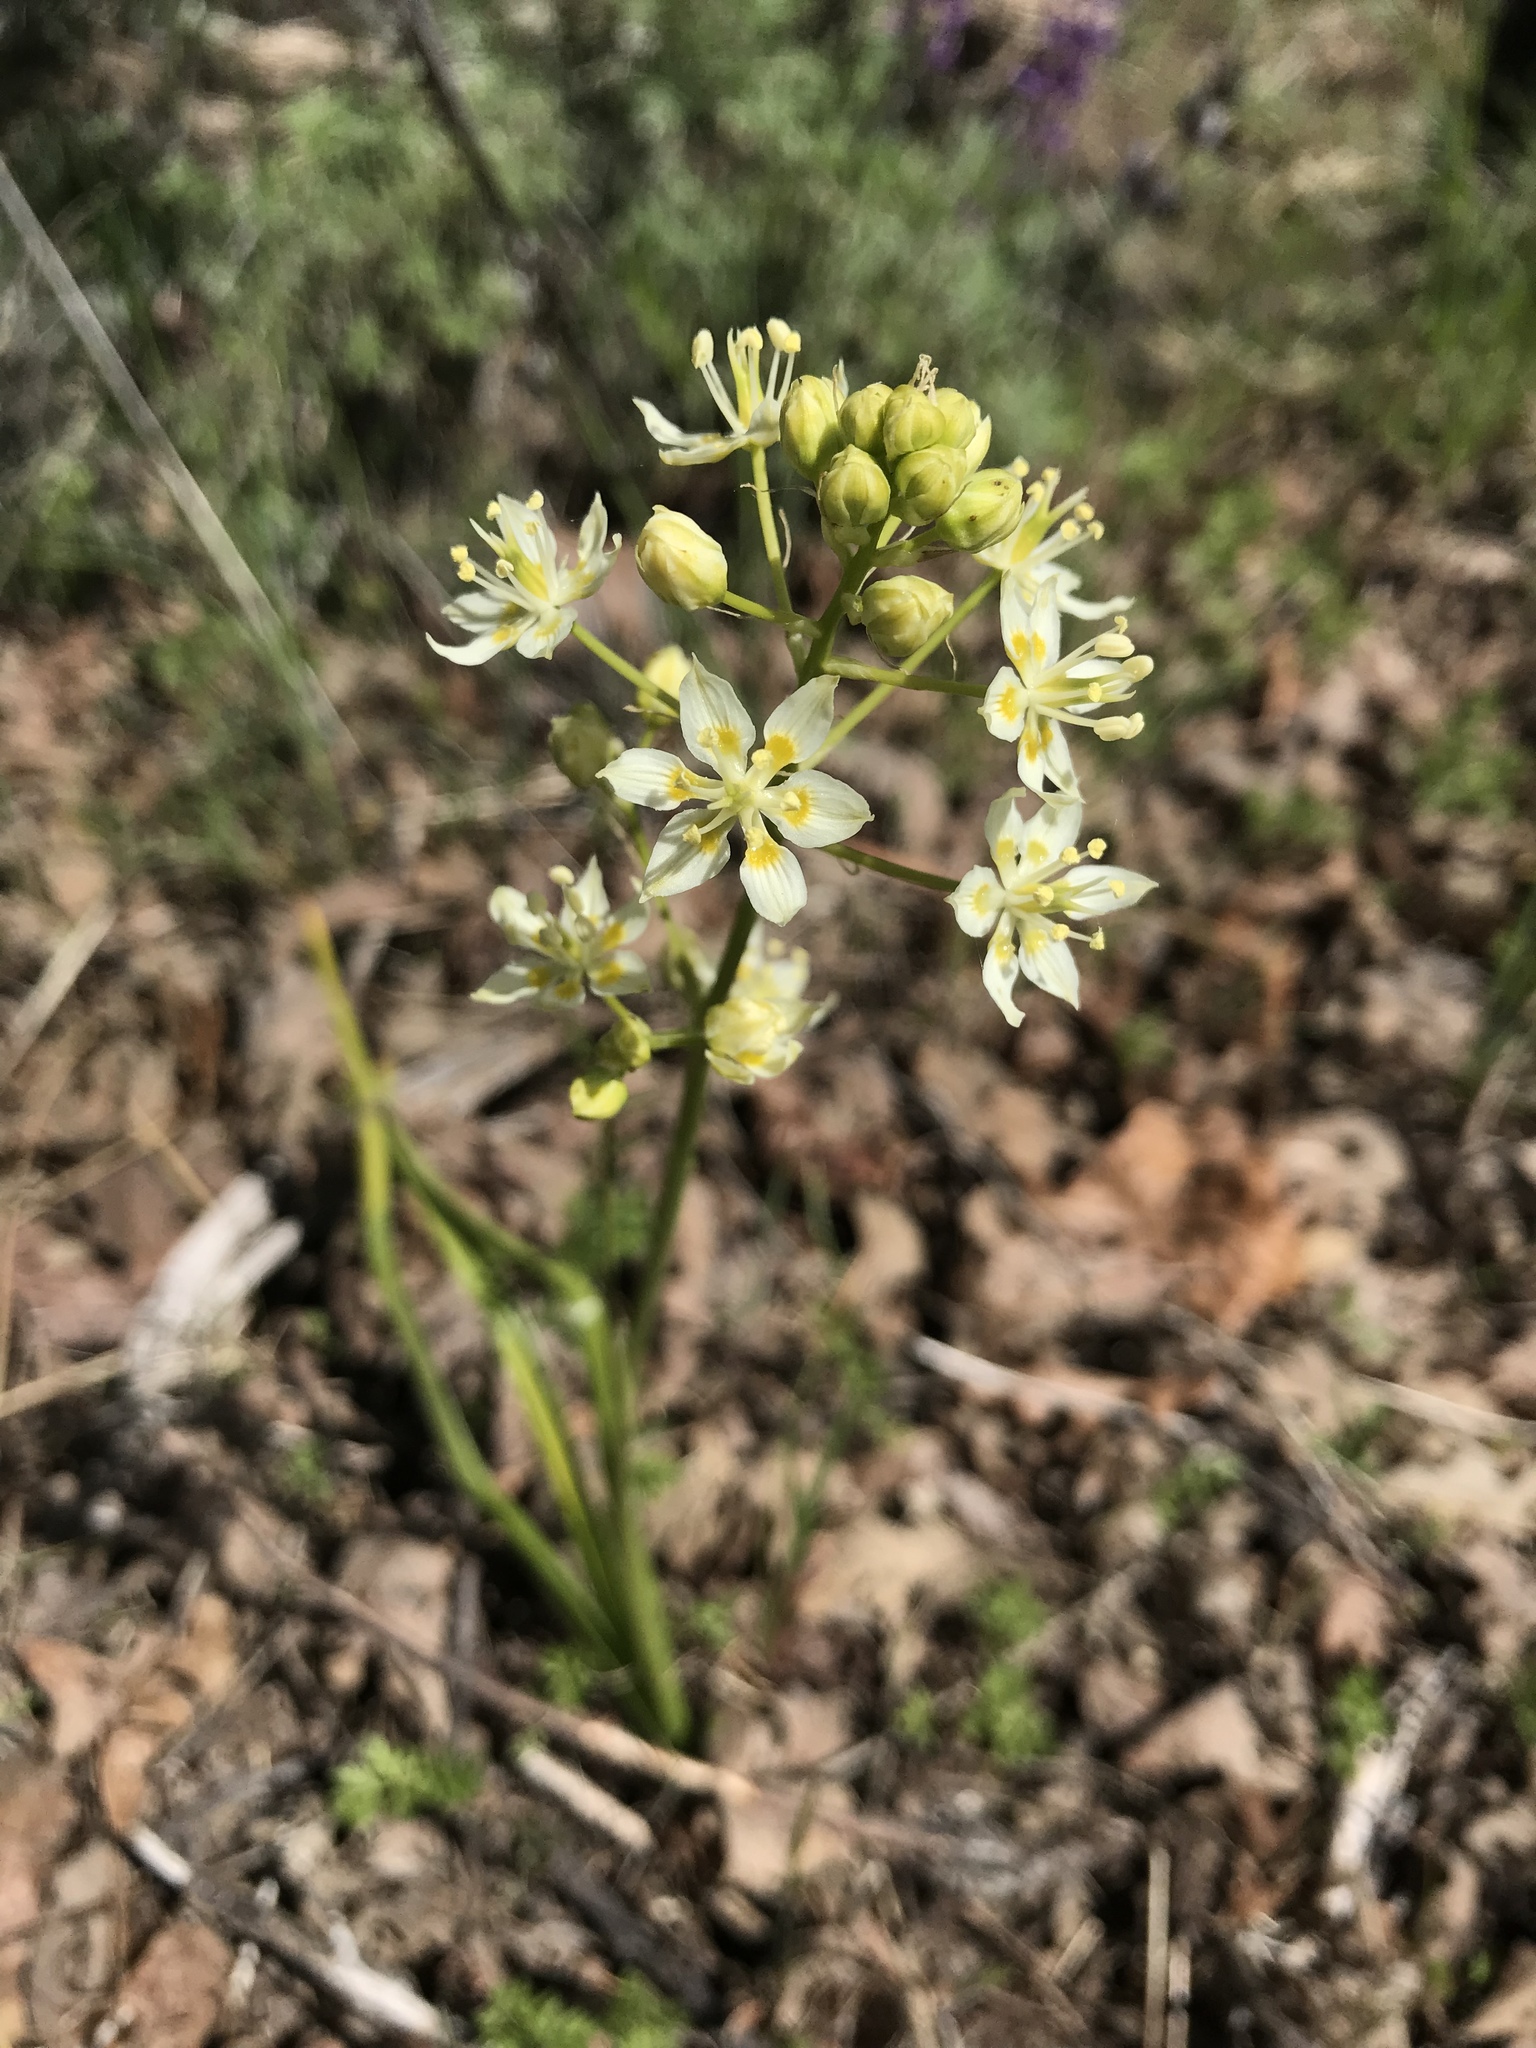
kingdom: Plantae
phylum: Tracheophyta
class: Liliopsida
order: Liliales
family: Melanthiaceae
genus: Toxicoscordion
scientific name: Toxicoscordion fremontii
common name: Fremont's death camas
